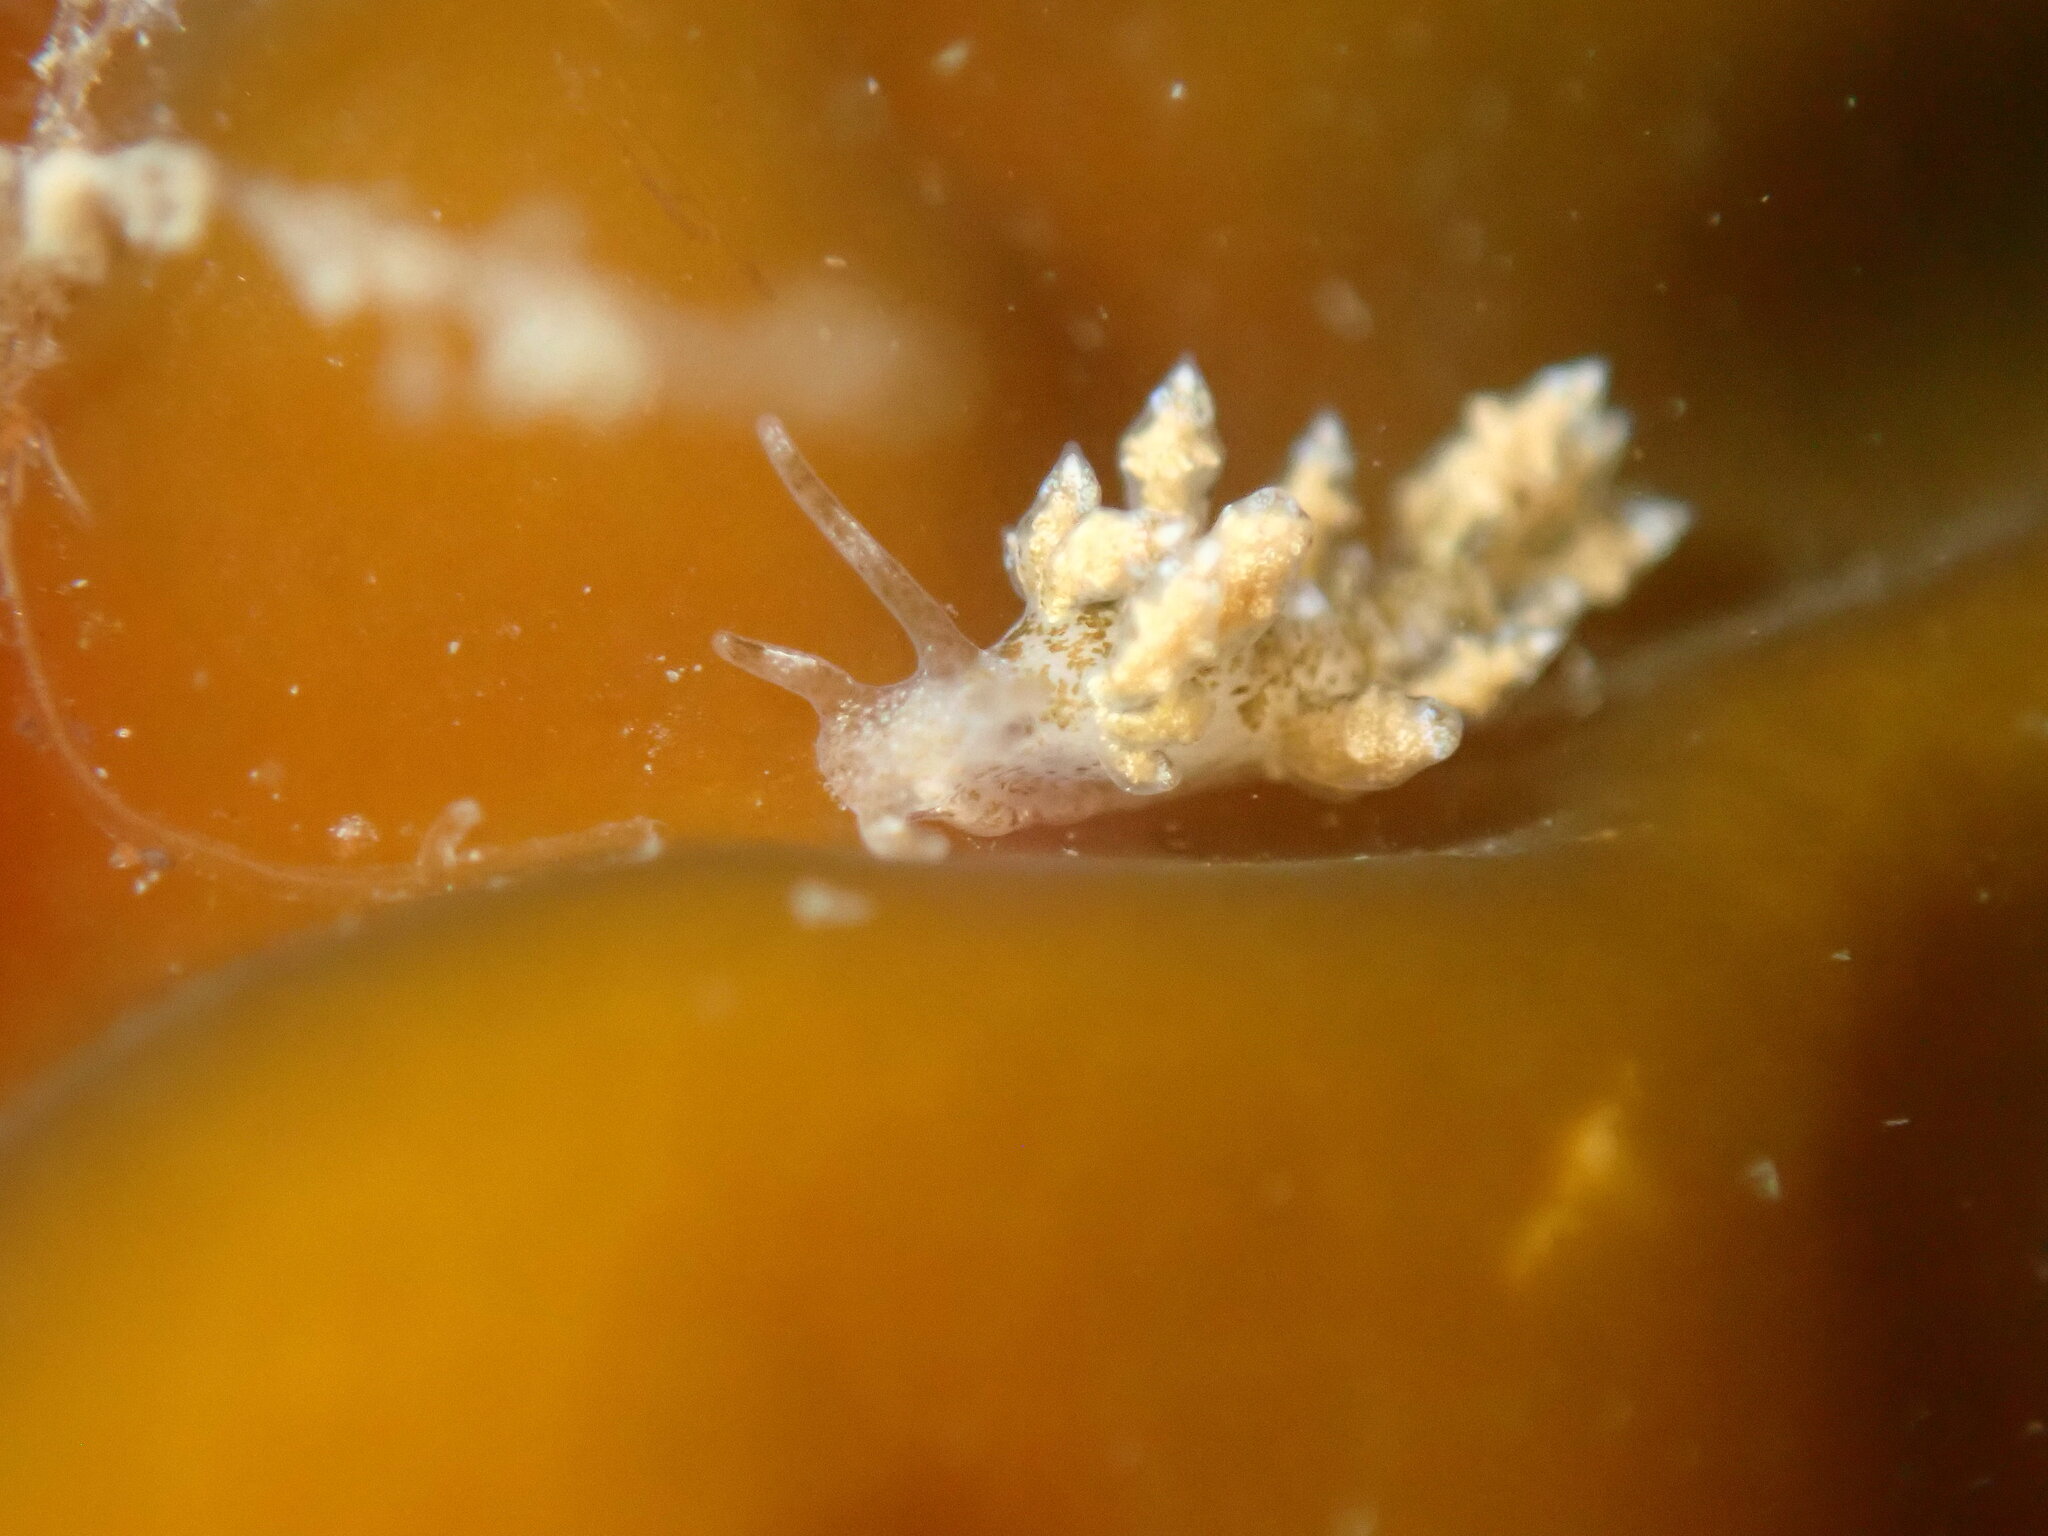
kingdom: Animalia
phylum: Mollusca
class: Gastropoda
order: Nudibranchia
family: Eubranchidae
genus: Eubranchus
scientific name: Eubranchus rustyus
